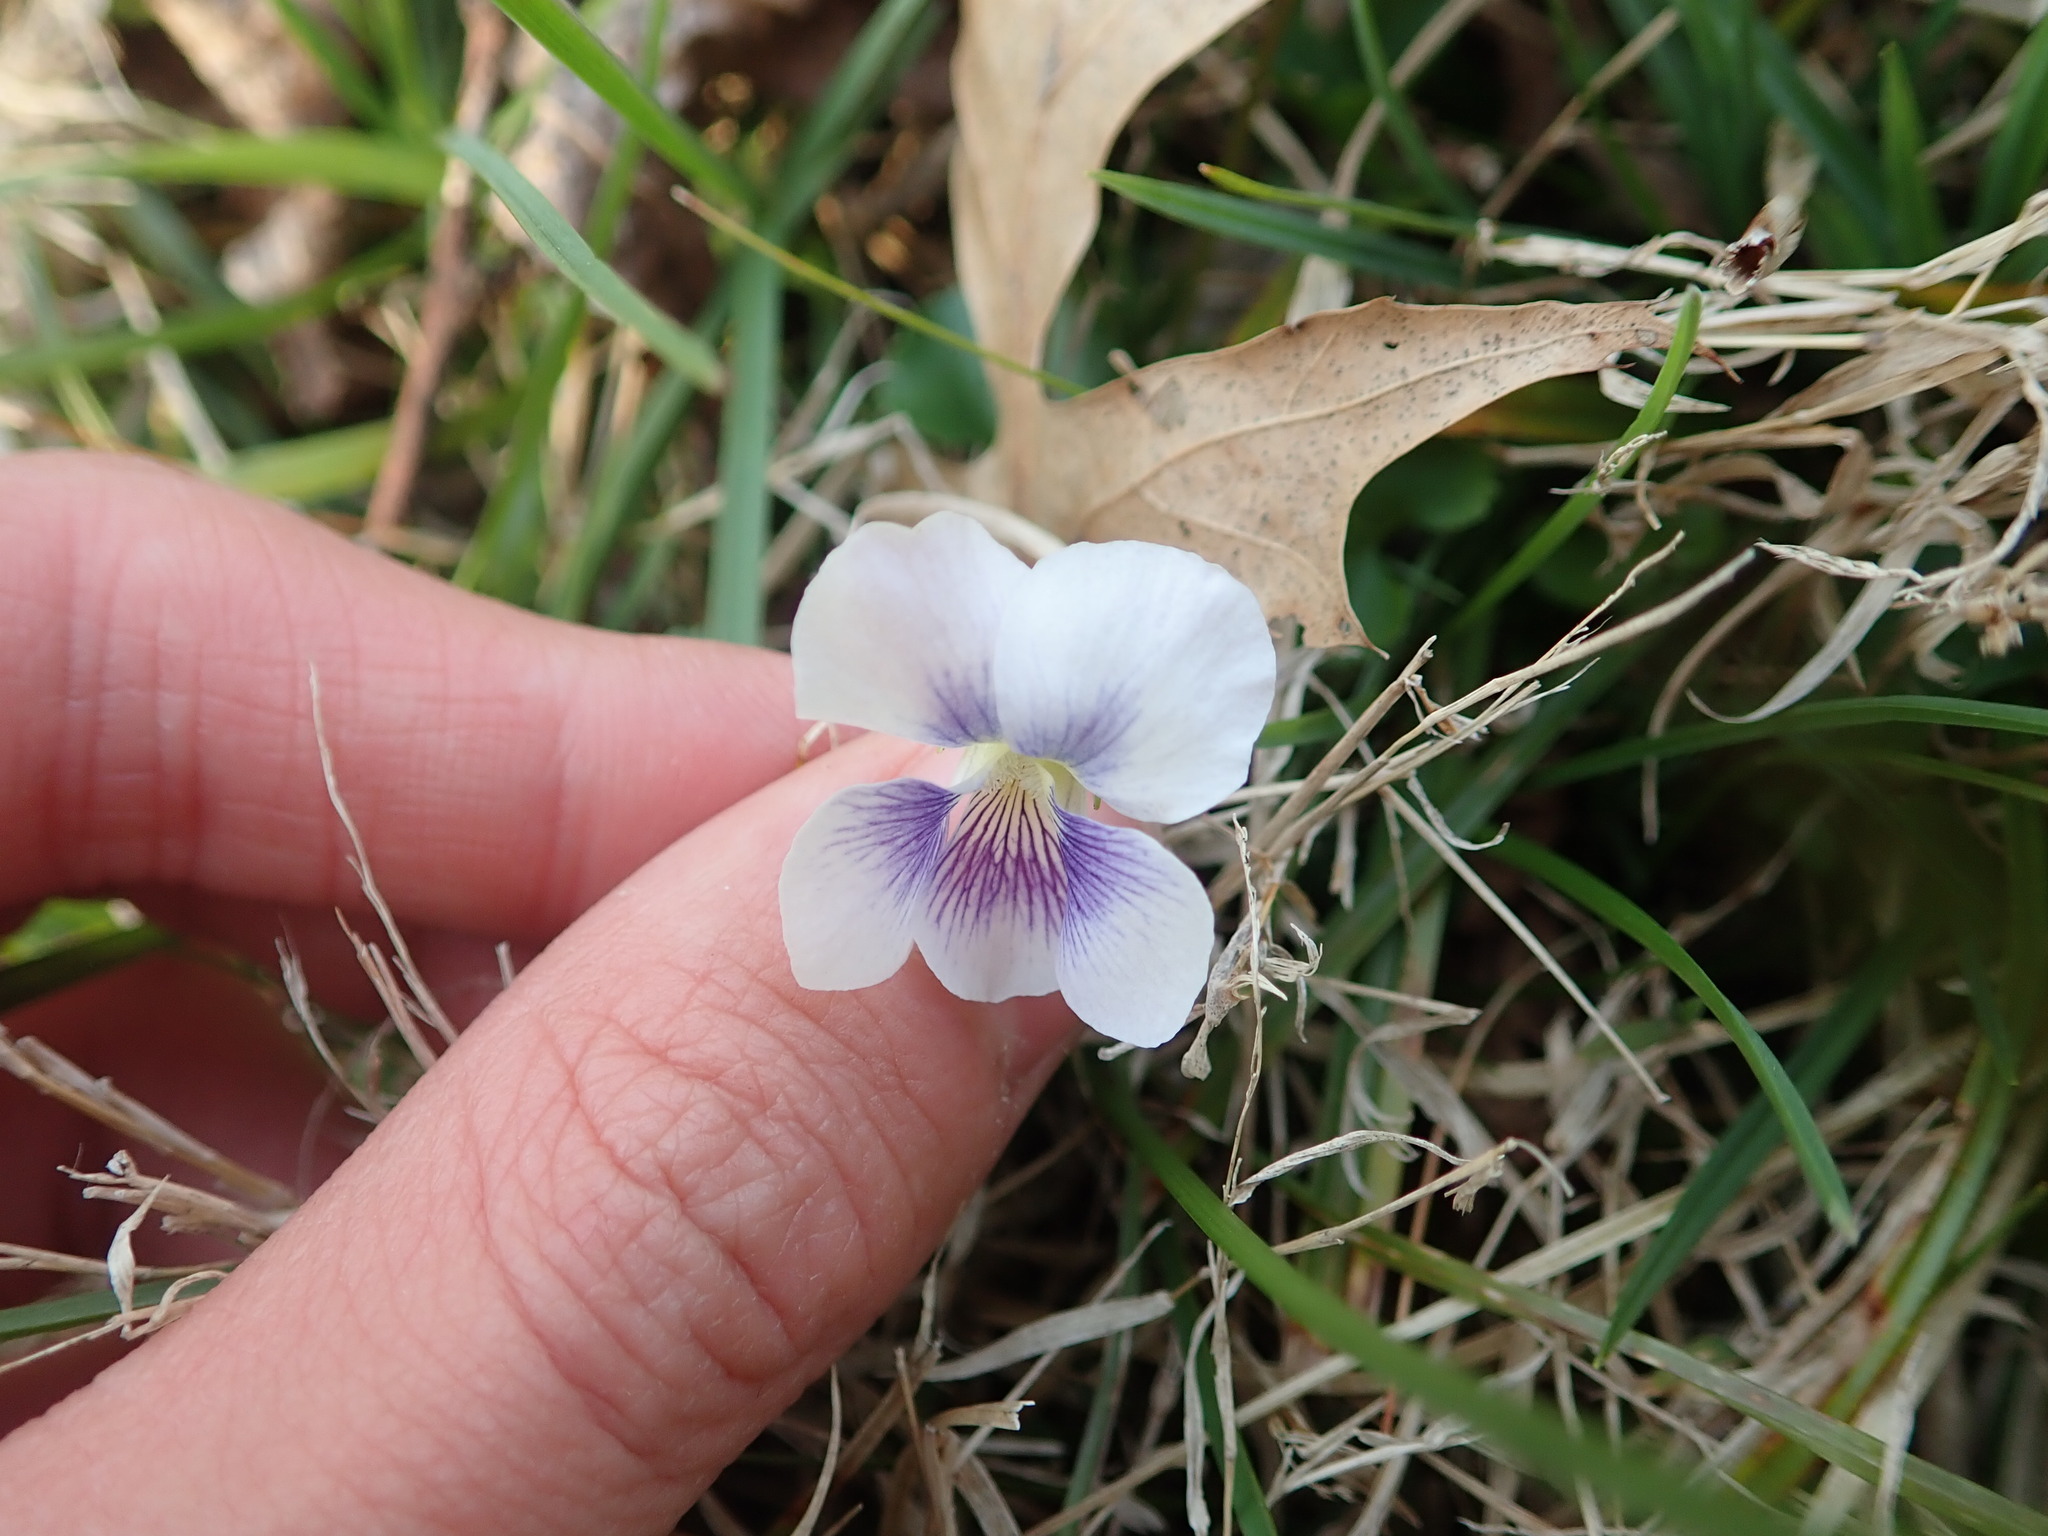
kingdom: Plantae
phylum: Tracheophyta
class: Magnoliopsida
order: Malpighiales
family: Violaceae
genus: Viola
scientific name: Viola sororia
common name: Dooryard violet
